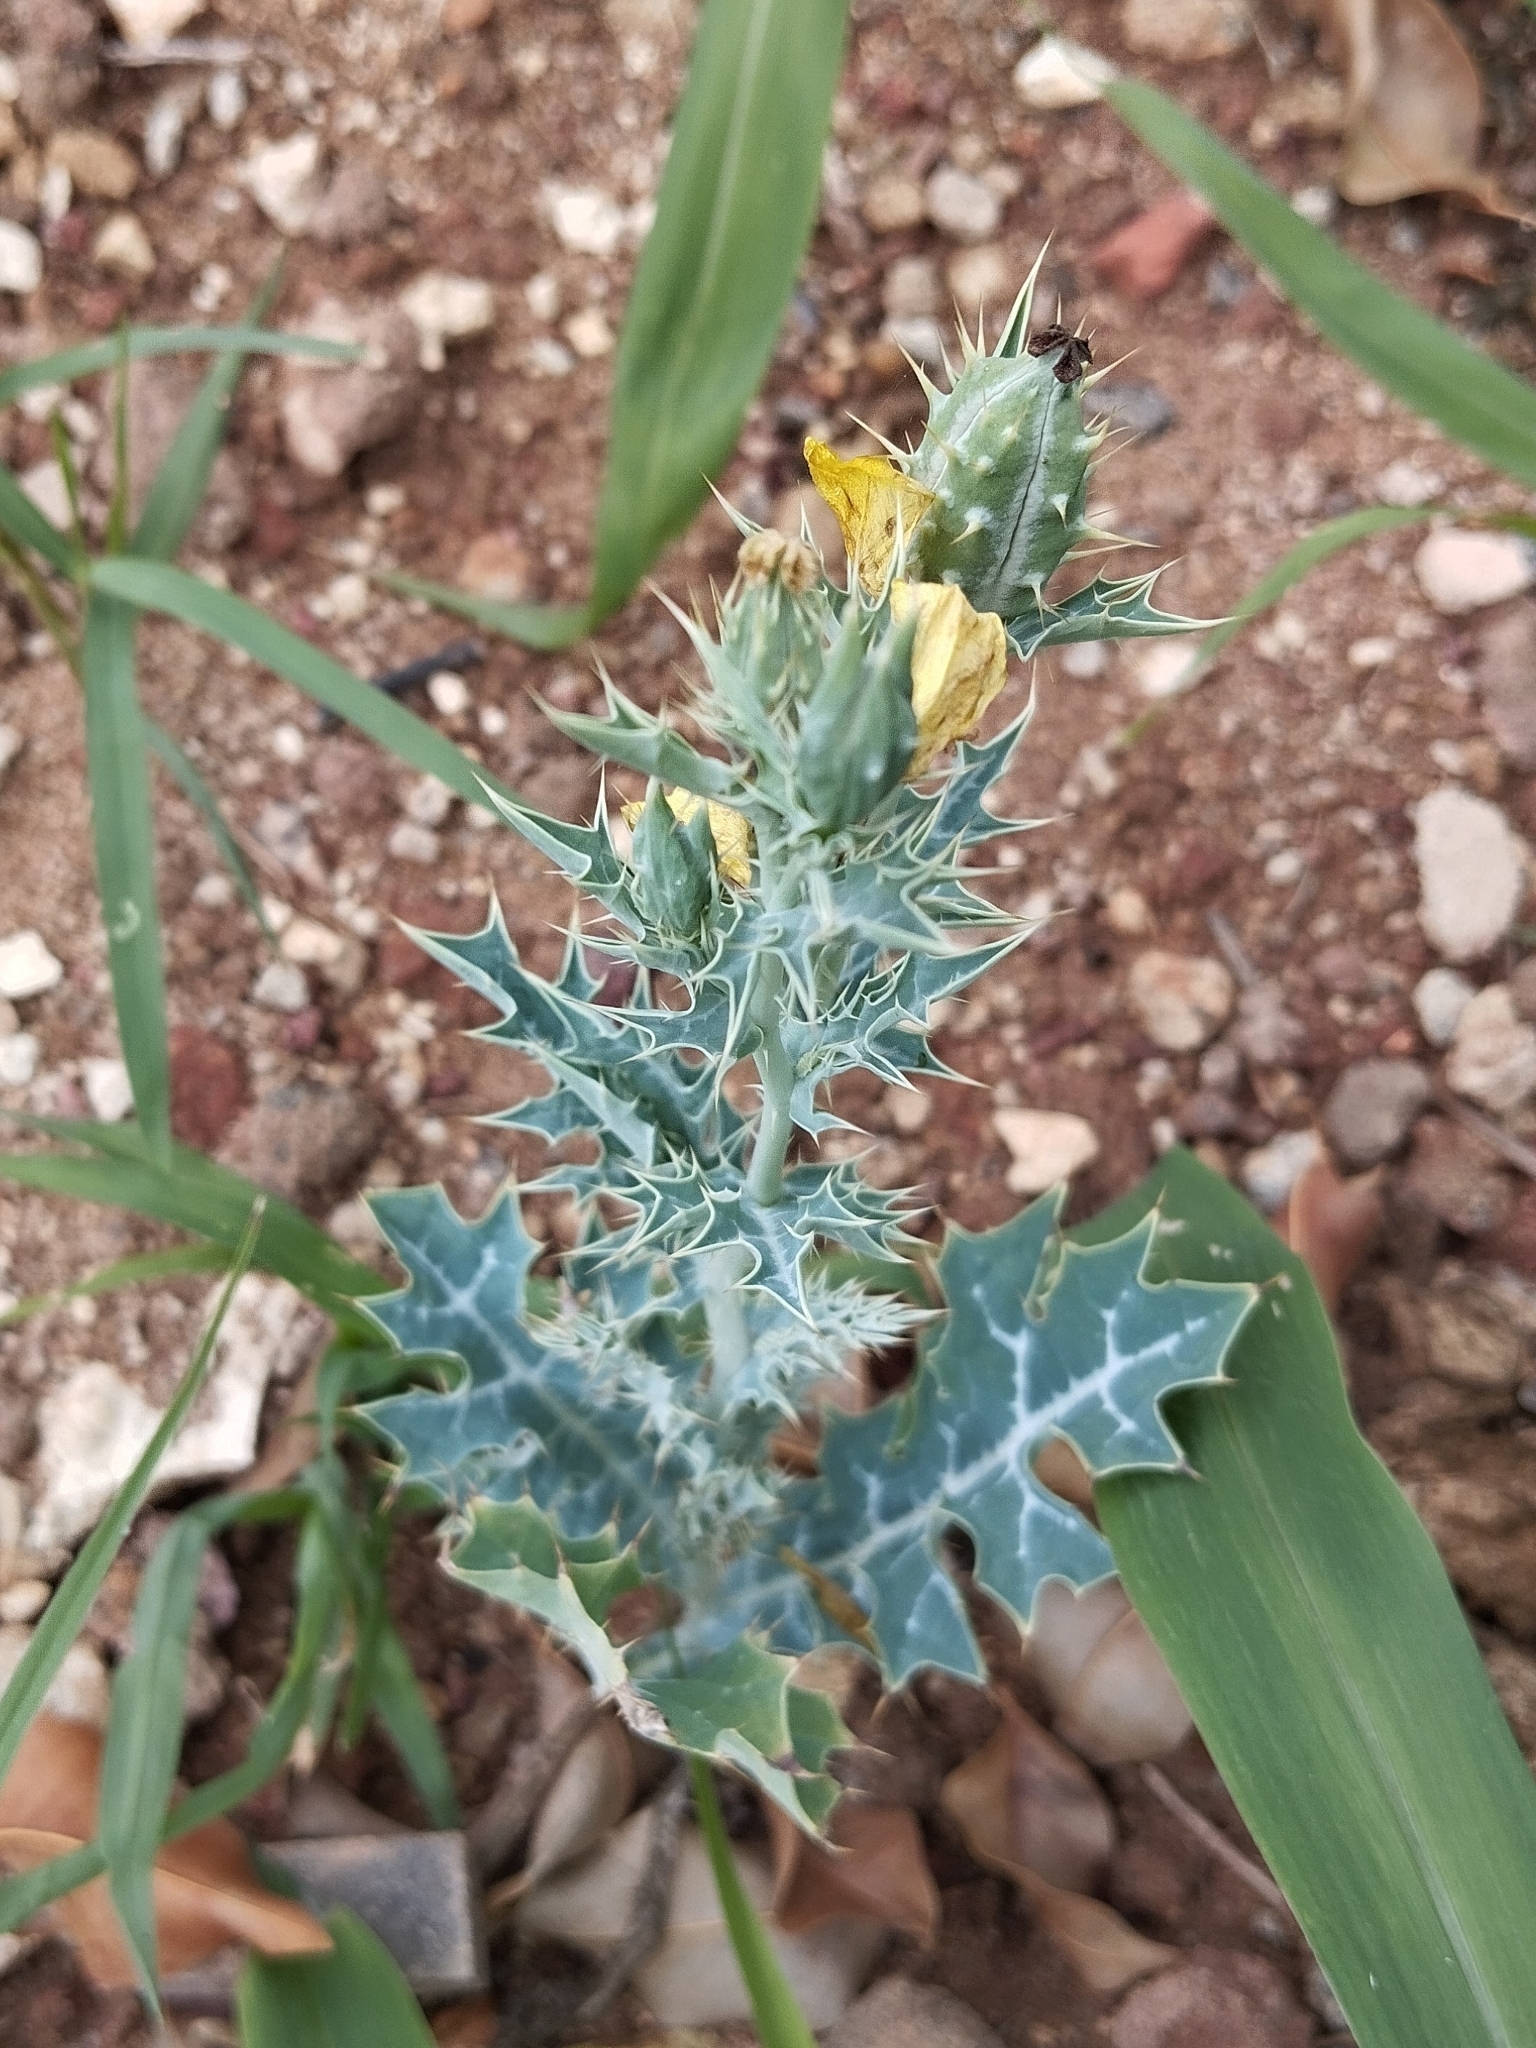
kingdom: Plantae
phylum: Tracheophyta
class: Magnoliopsida
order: Ranunculales
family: Papaveraceae
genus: Argemone
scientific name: Argemone mexicana
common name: Mexican poppy
